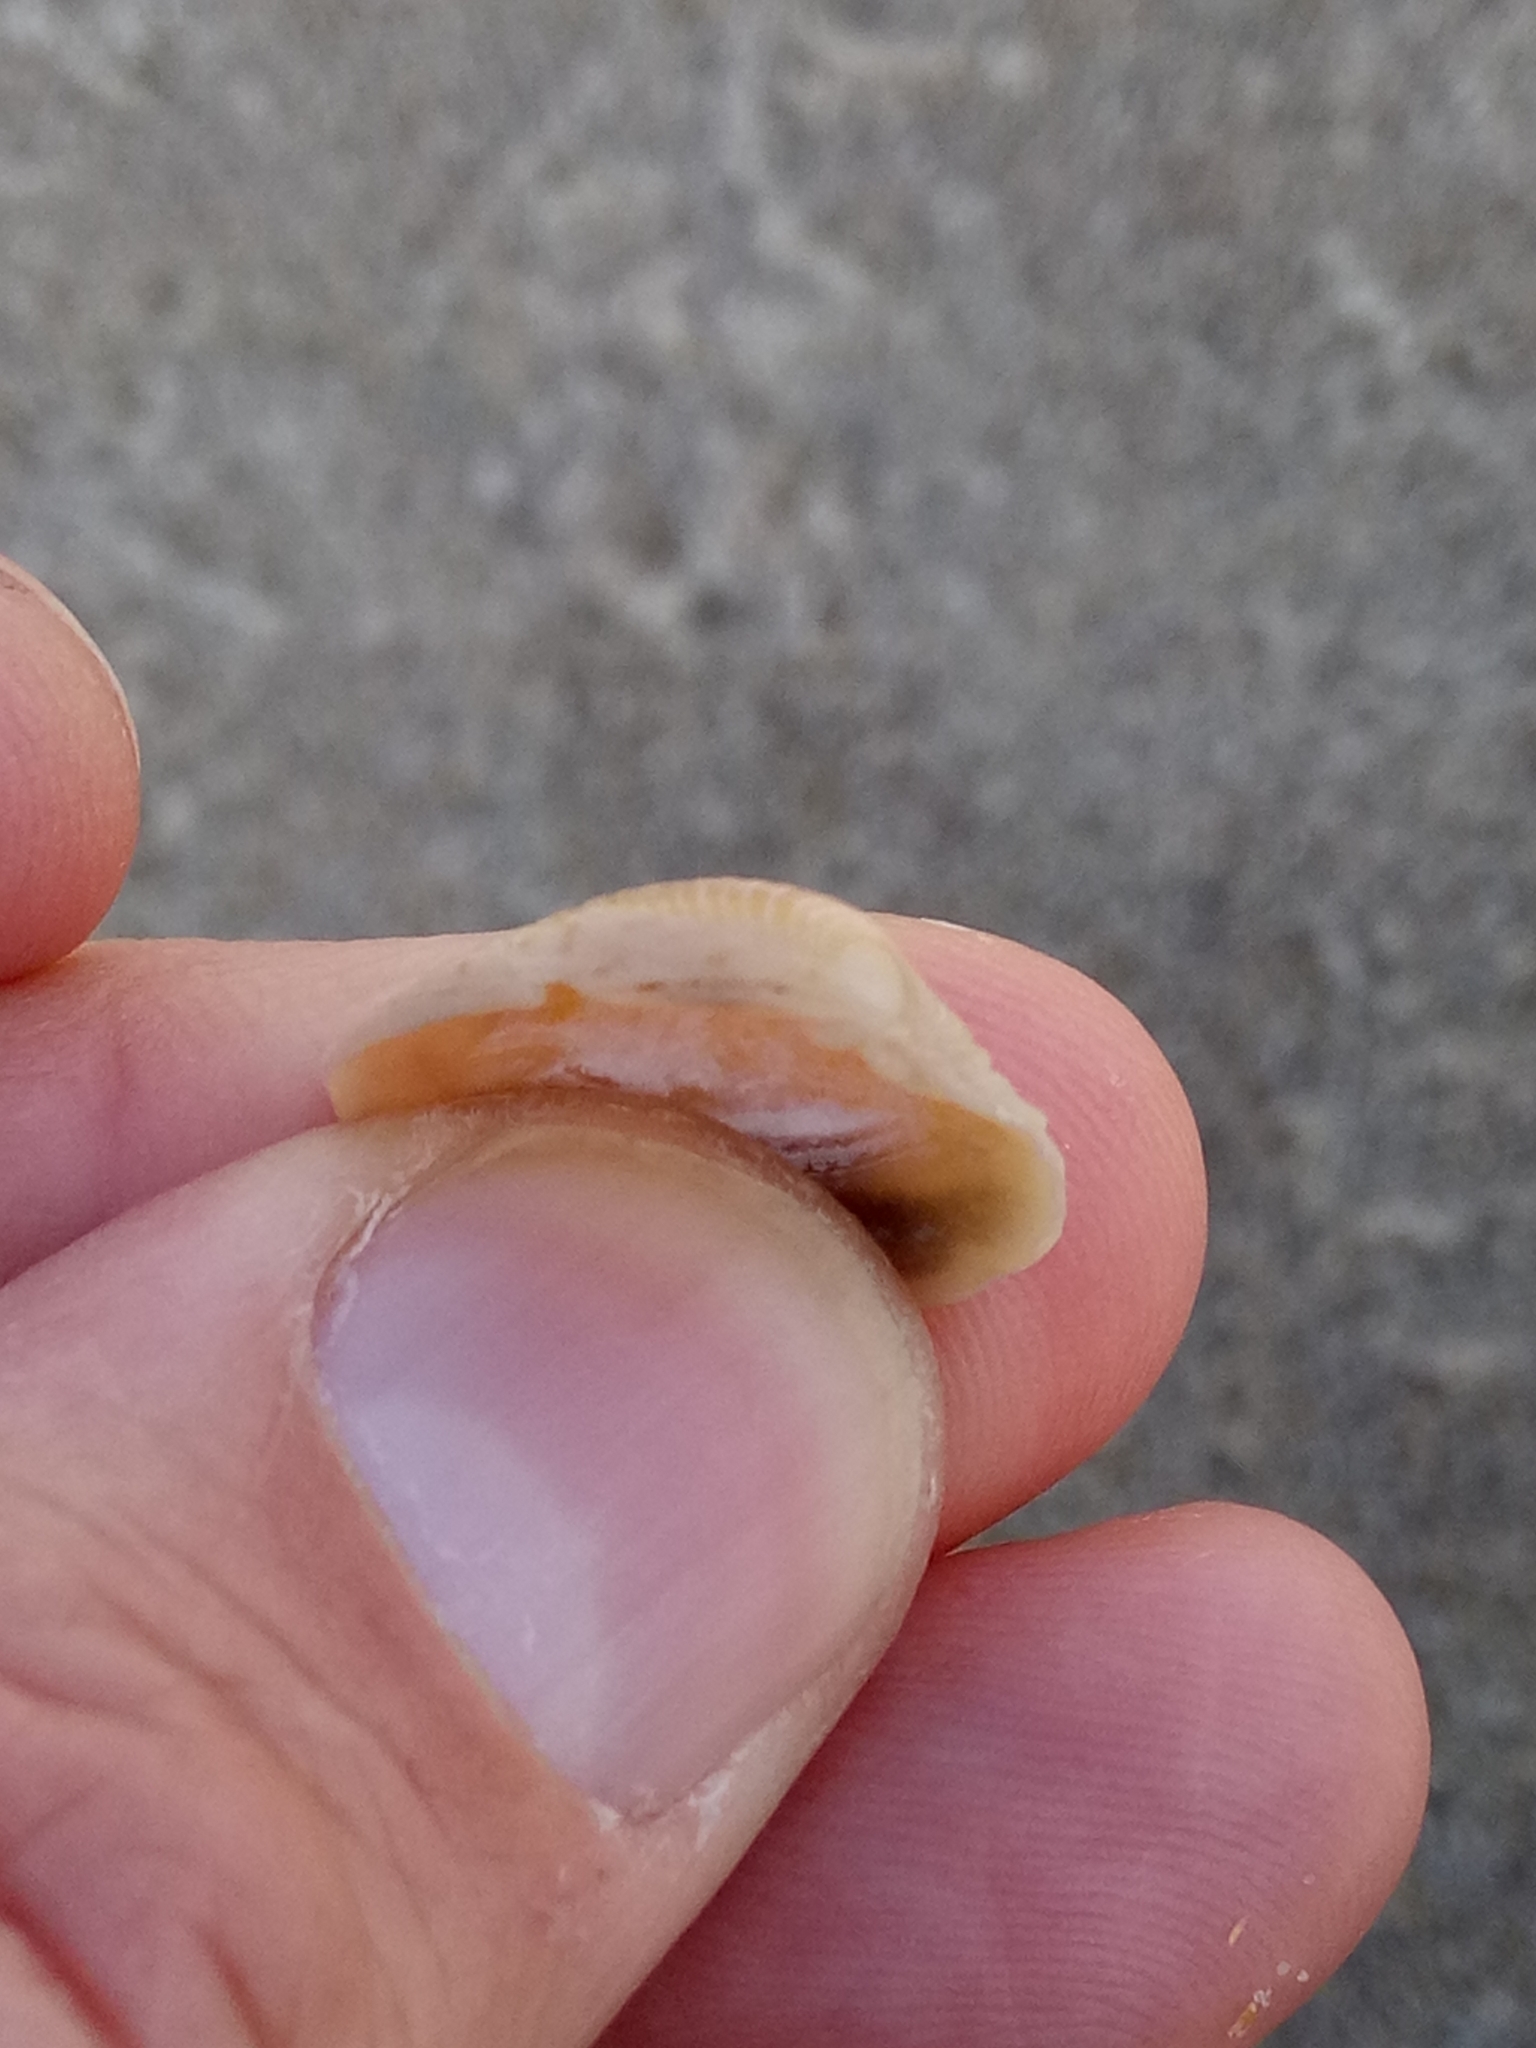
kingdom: Animalia
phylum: Mollusca
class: Bivalvia
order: Venerida
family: Veneridae
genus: Chamelea
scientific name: Chamelea gallina
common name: Chicken venus
